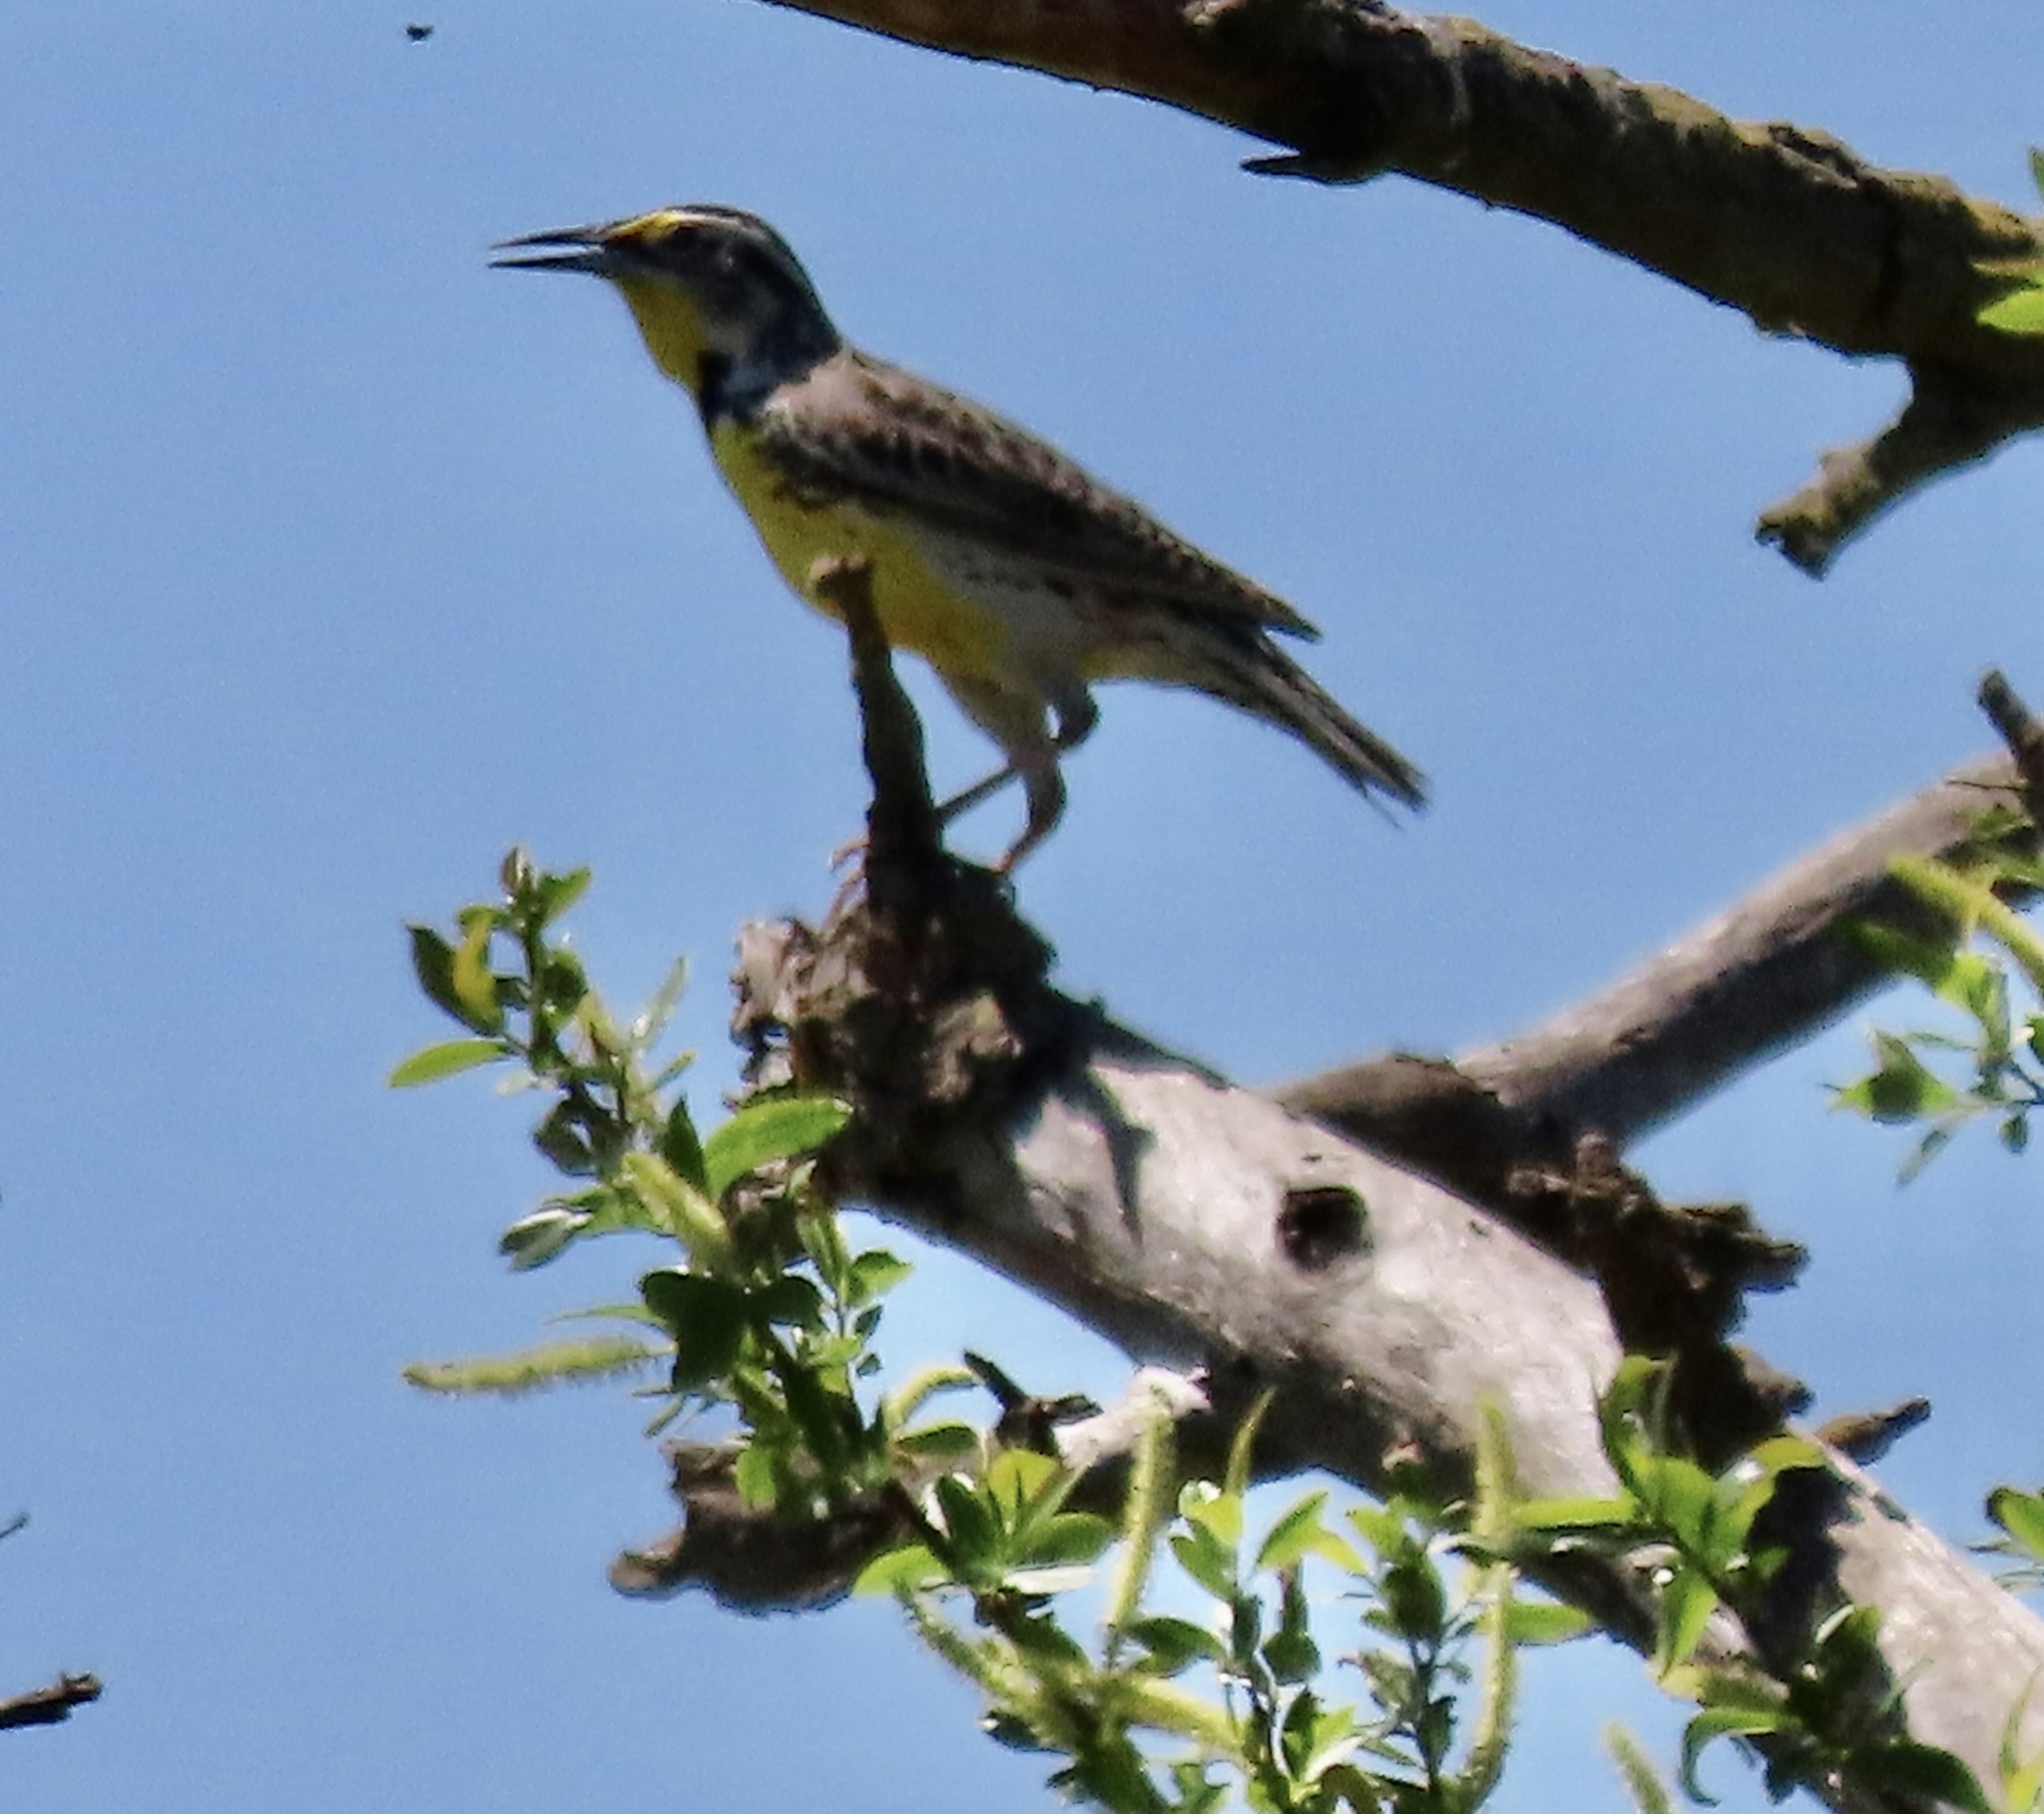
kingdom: Animalia
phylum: Chordata
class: Aves
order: Passeriformes
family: Icteridae
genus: Sturnella
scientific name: Sturnella neglecta
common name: Western meadowlark
